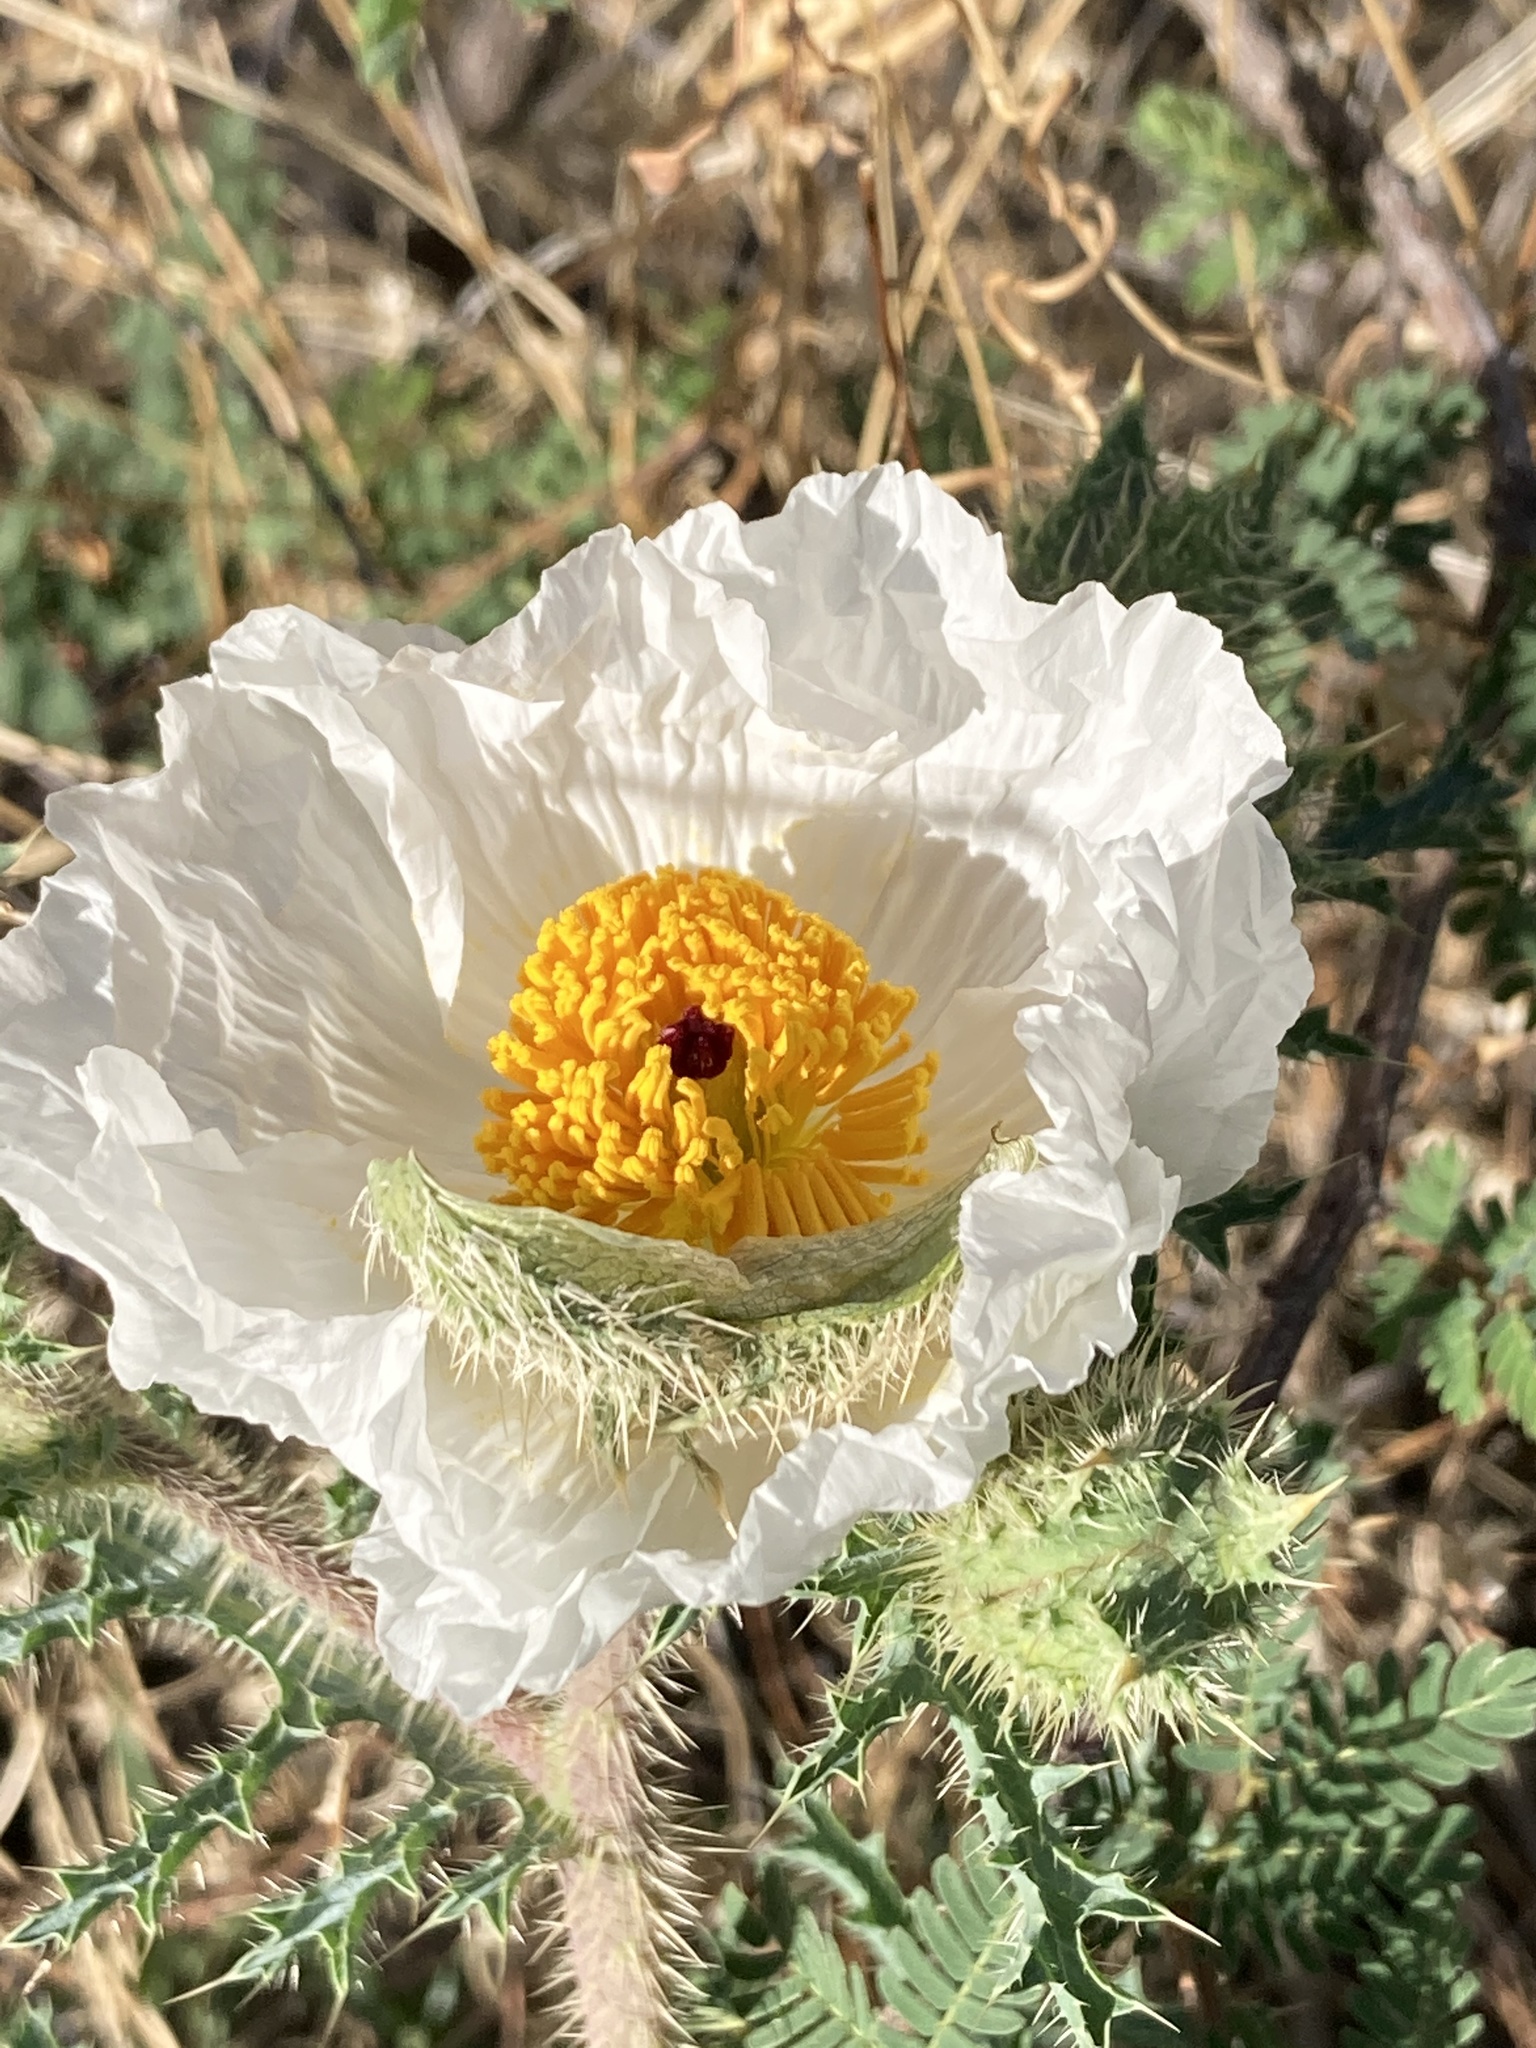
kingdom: Plantae
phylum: Tracheophyta
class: Magnoliopsida
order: Ranunculales
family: Papaveraceae
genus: Argemone
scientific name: Argemone pleiacantha
